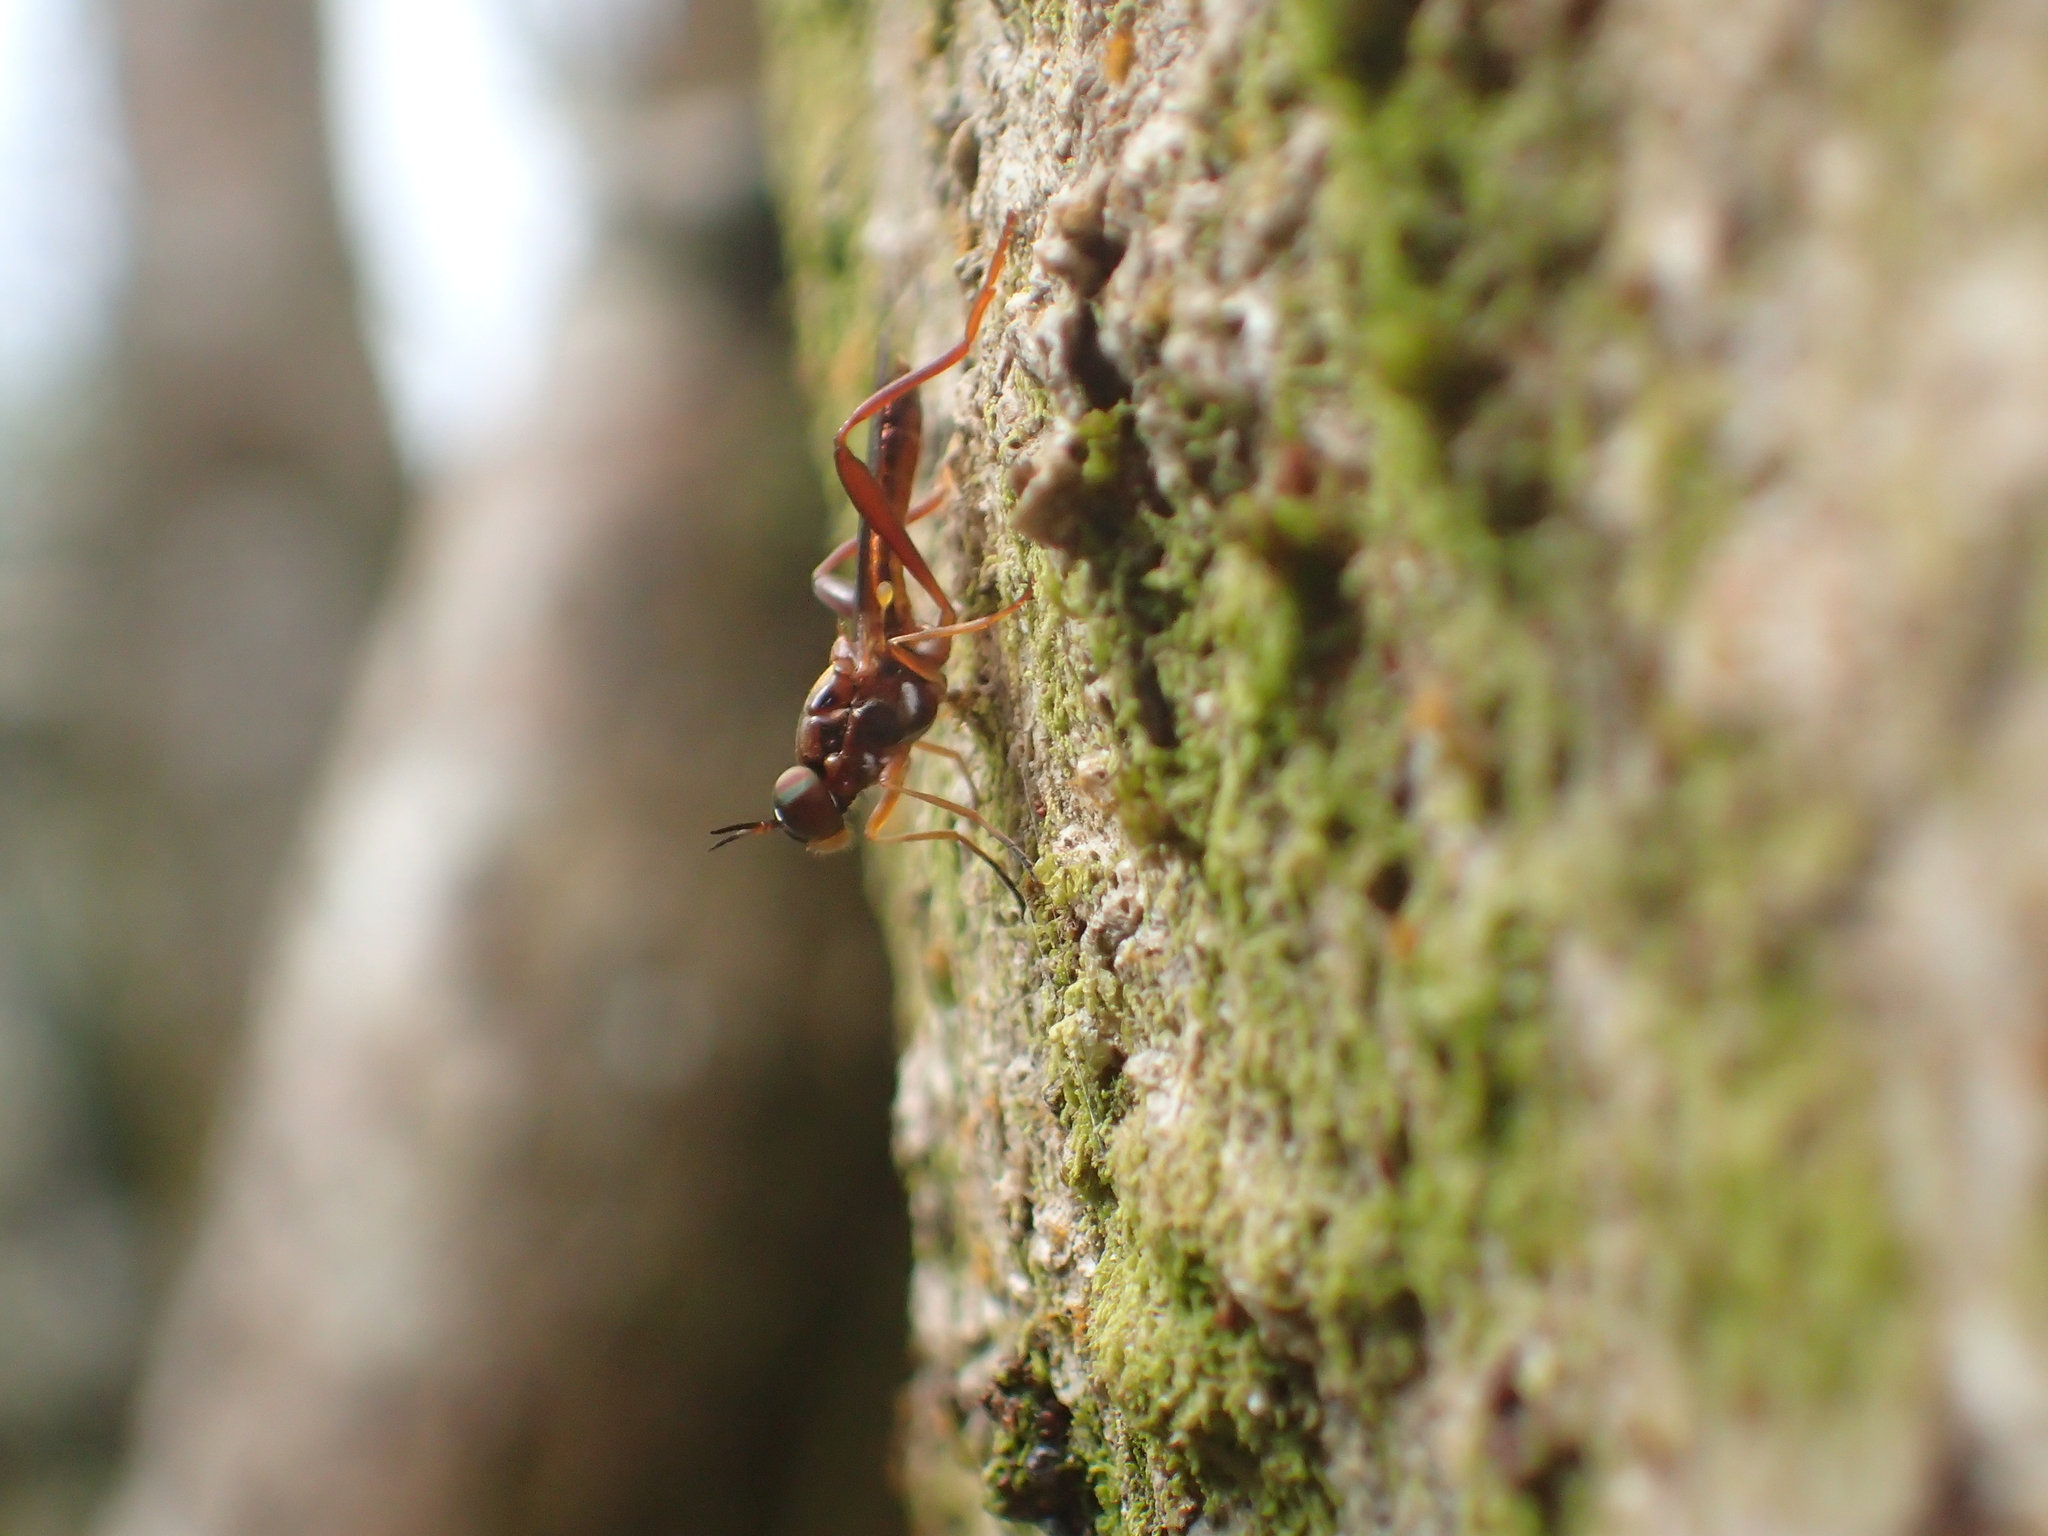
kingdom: Animalia
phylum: Arthropoda
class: Insecta
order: Diptera
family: Stratiomyidae
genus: Benhamyia
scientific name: Benhamyia straznitzkii
